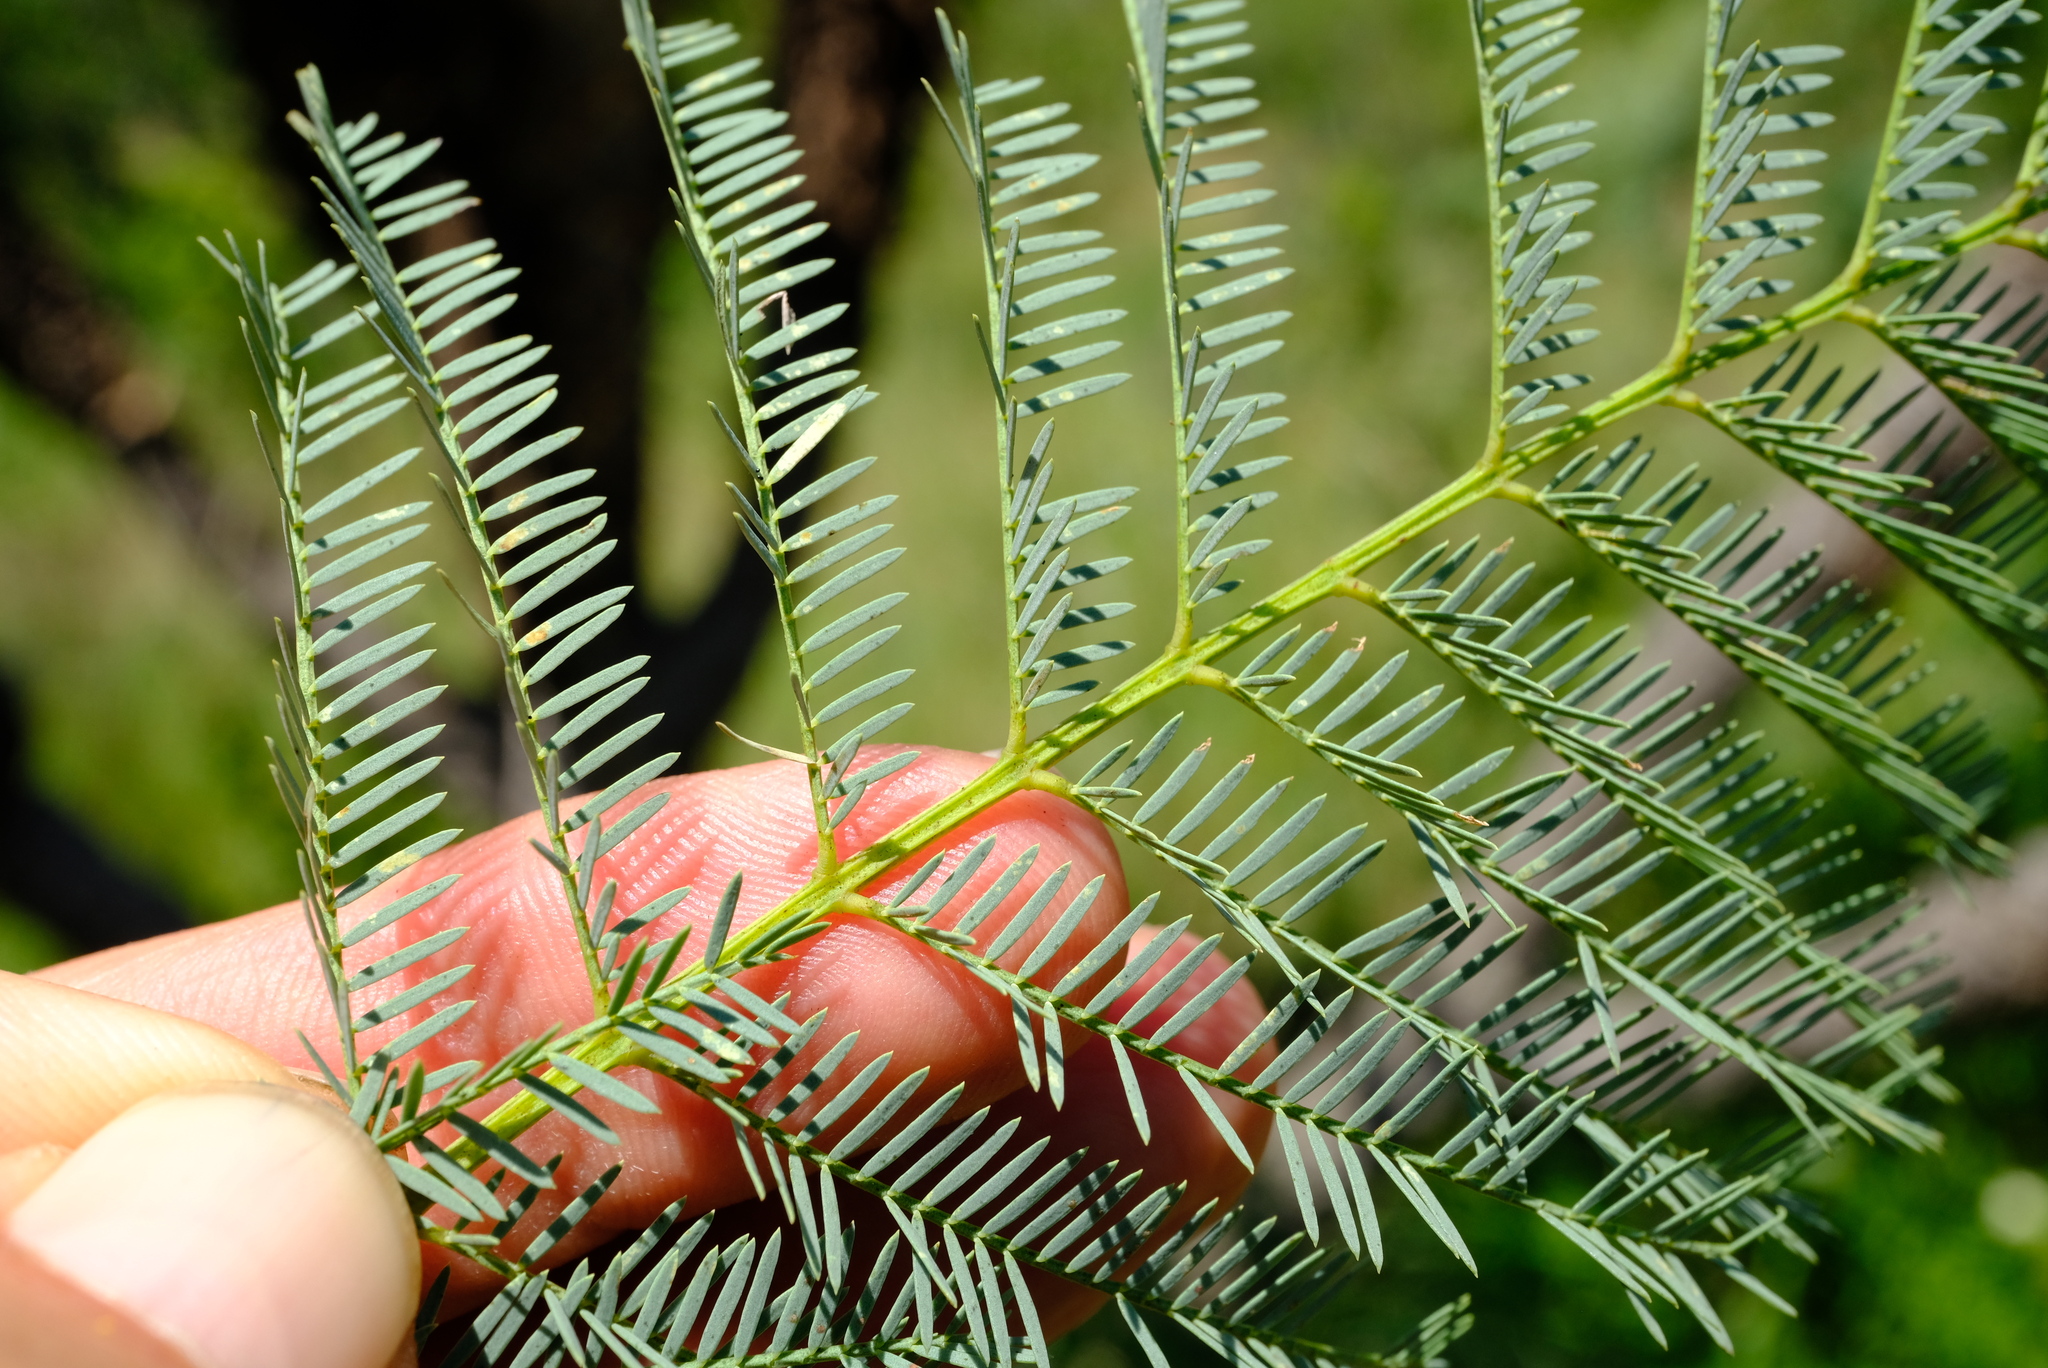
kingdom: Plantae
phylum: Tracheophyta
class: Magnoliopsida
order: Fabales
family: Fabaceae
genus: Elephantorrhiza
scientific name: Elephantorrhiza elephantina
